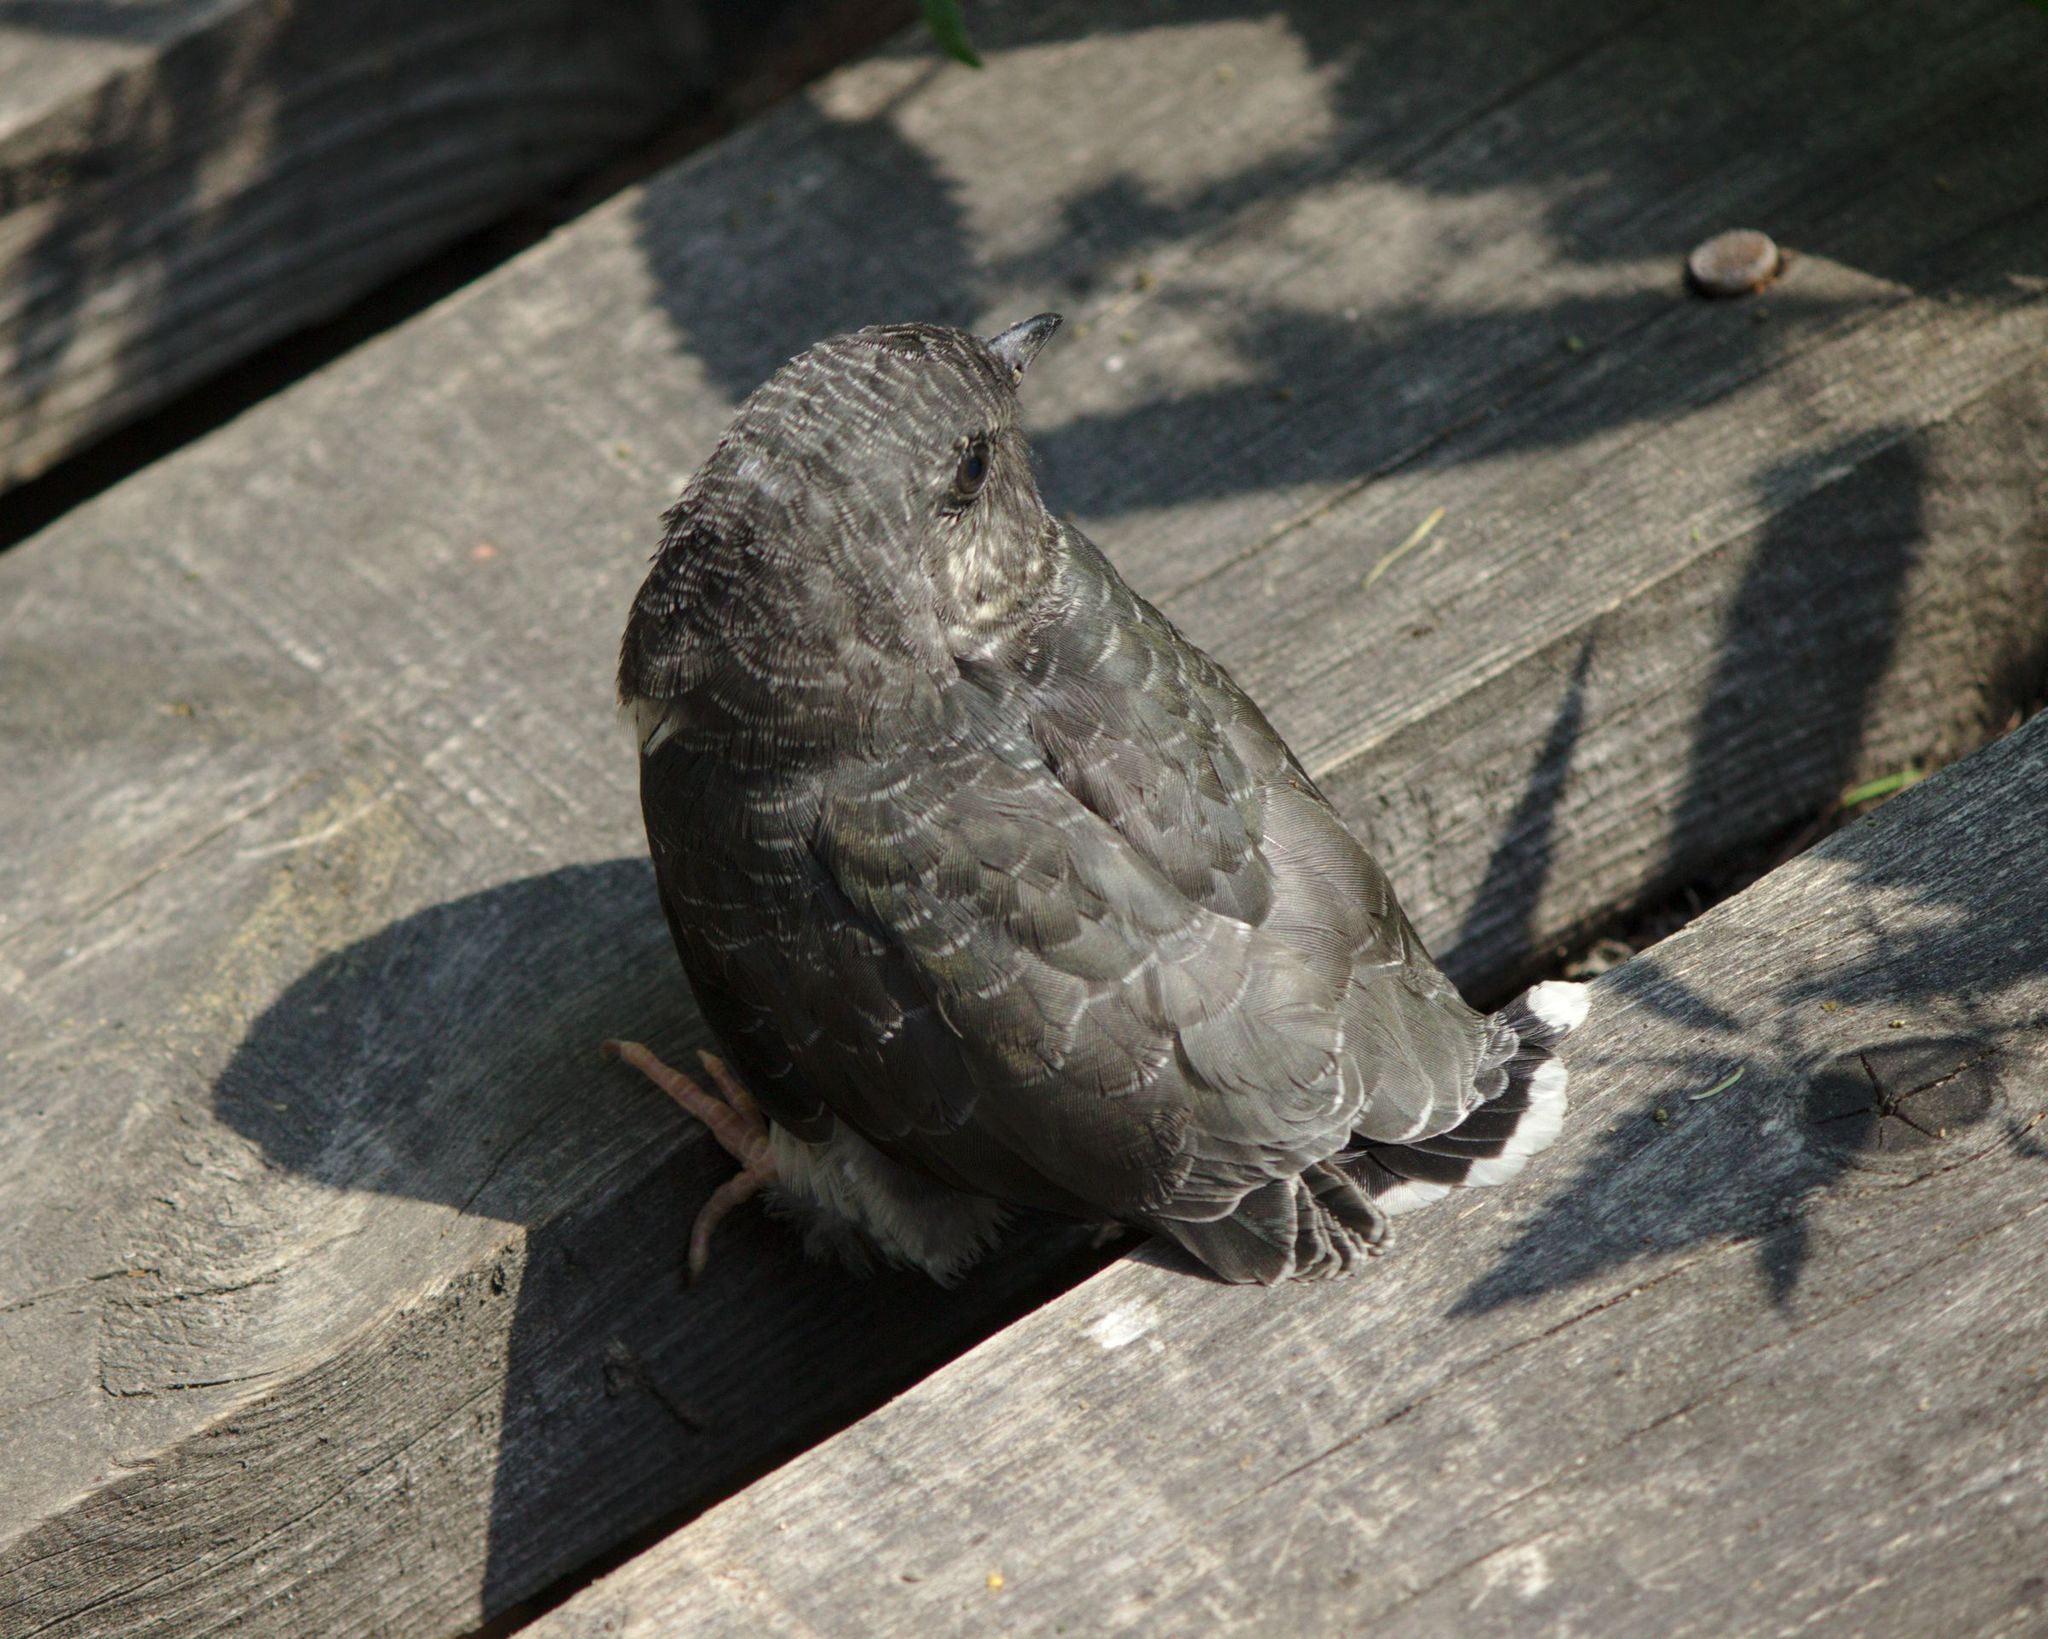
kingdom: Animalia
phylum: Chordata
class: Aves
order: Cuculiformes
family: Cuculidae
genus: Cuculus
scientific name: Cuculus canorus
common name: Common cuckoo
